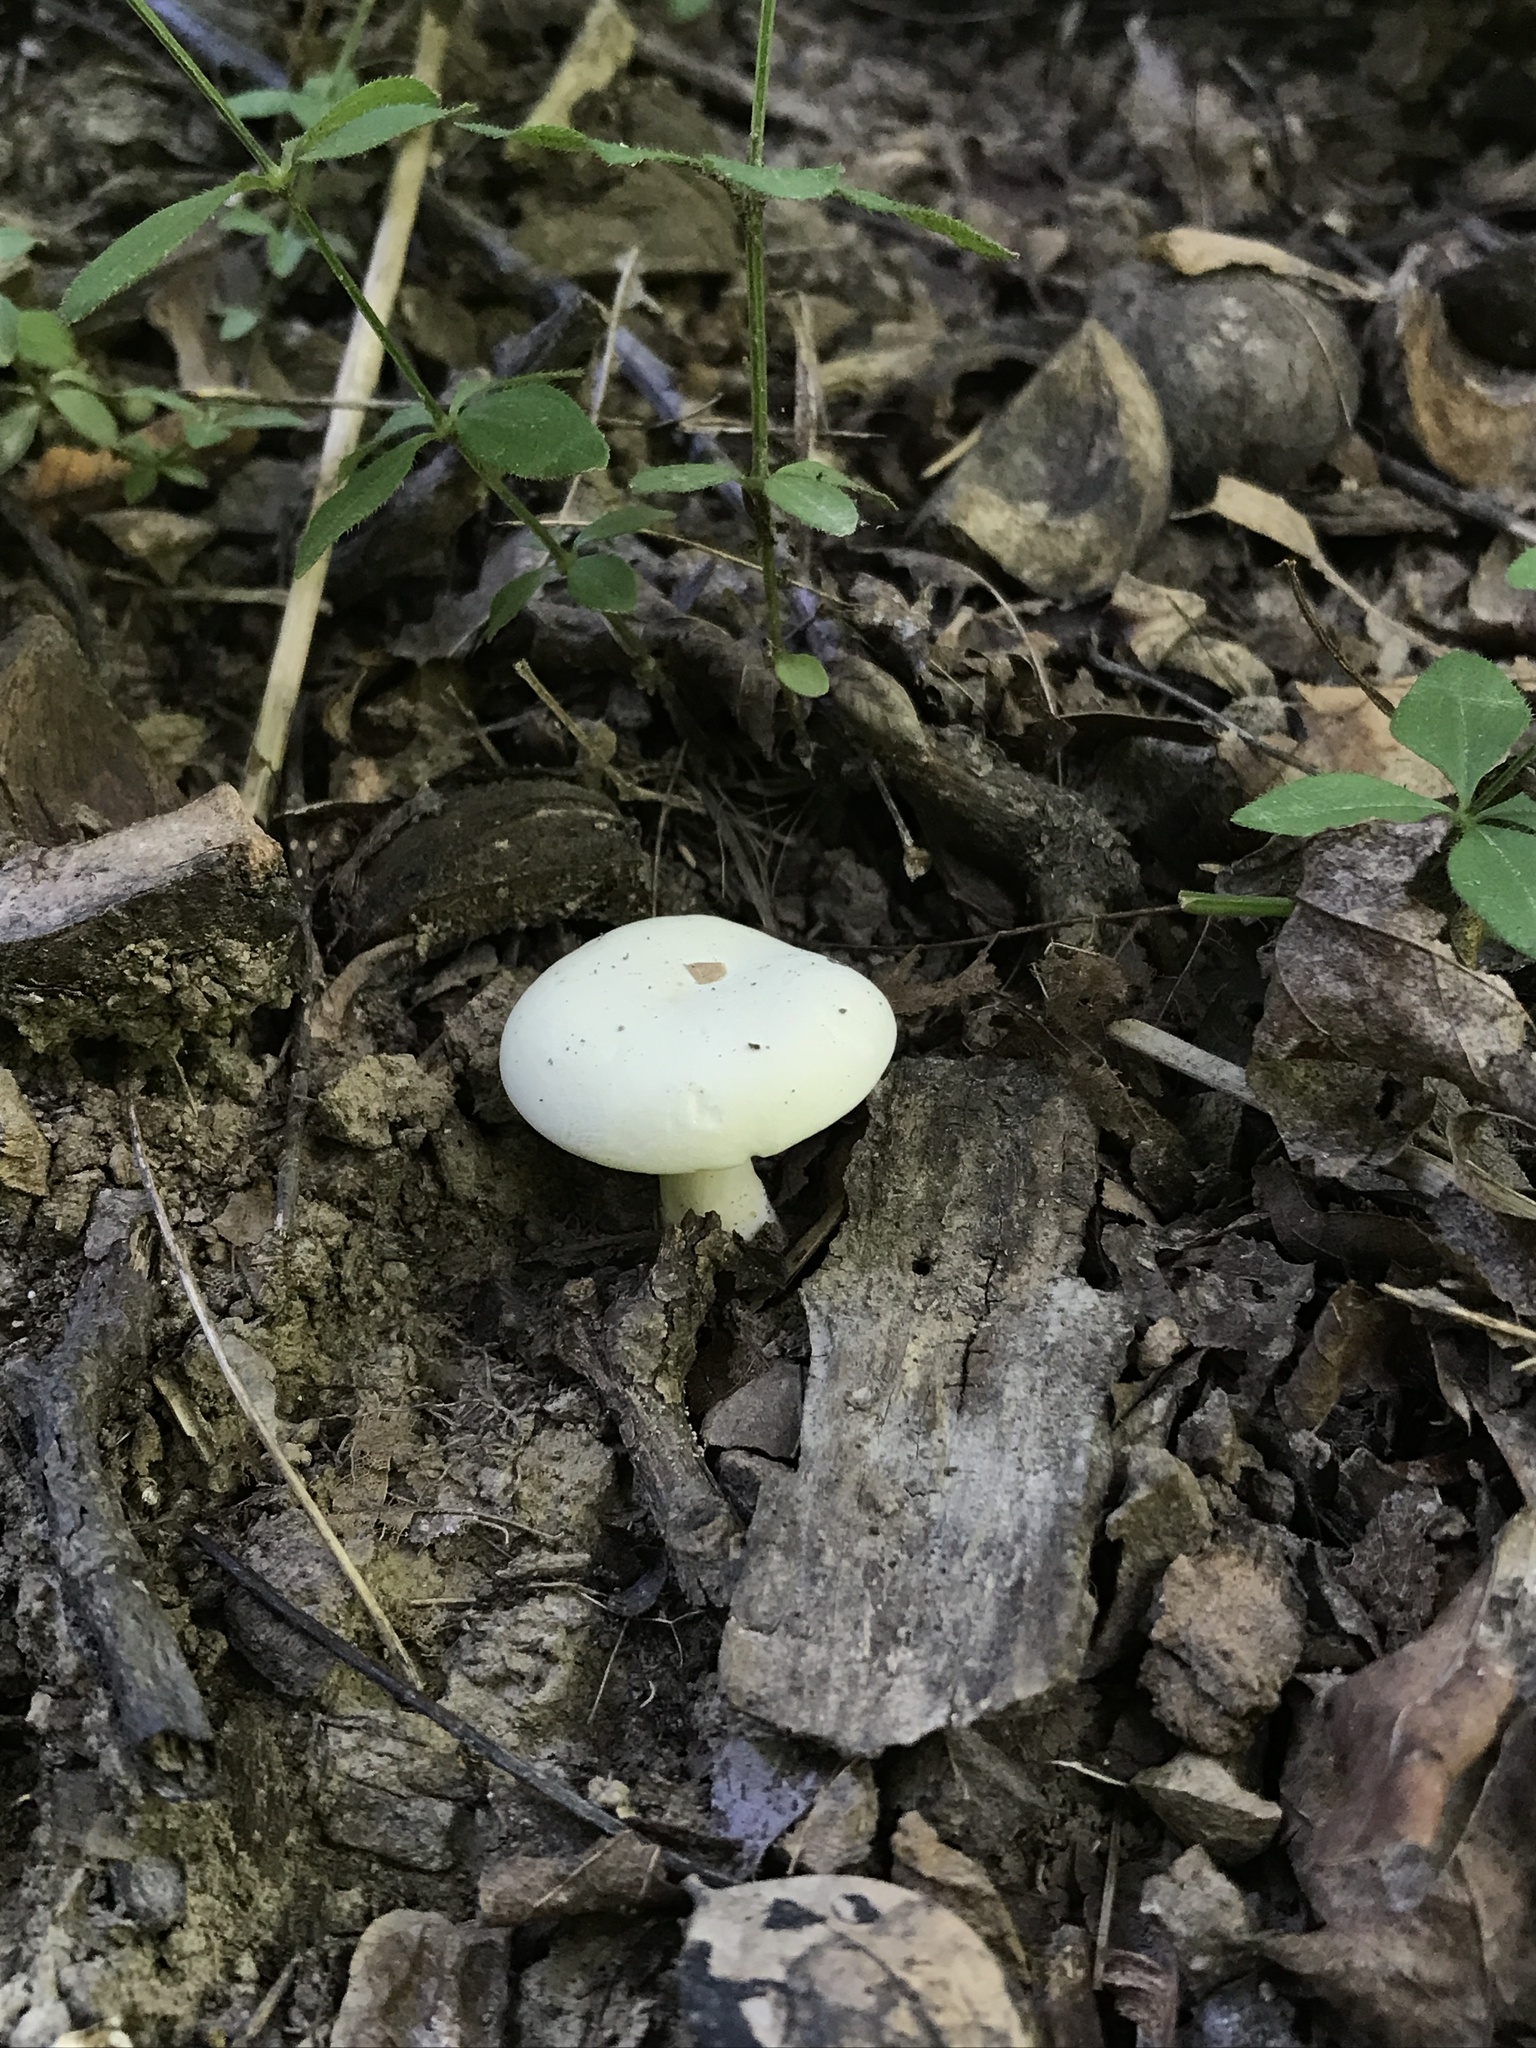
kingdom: Fungi
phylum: Basidiomycota
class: Agaricomycetes
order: Agaricales
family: Entolomataceae
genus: Clitopilus
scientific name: Clitopilus prunulus
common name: The miller
